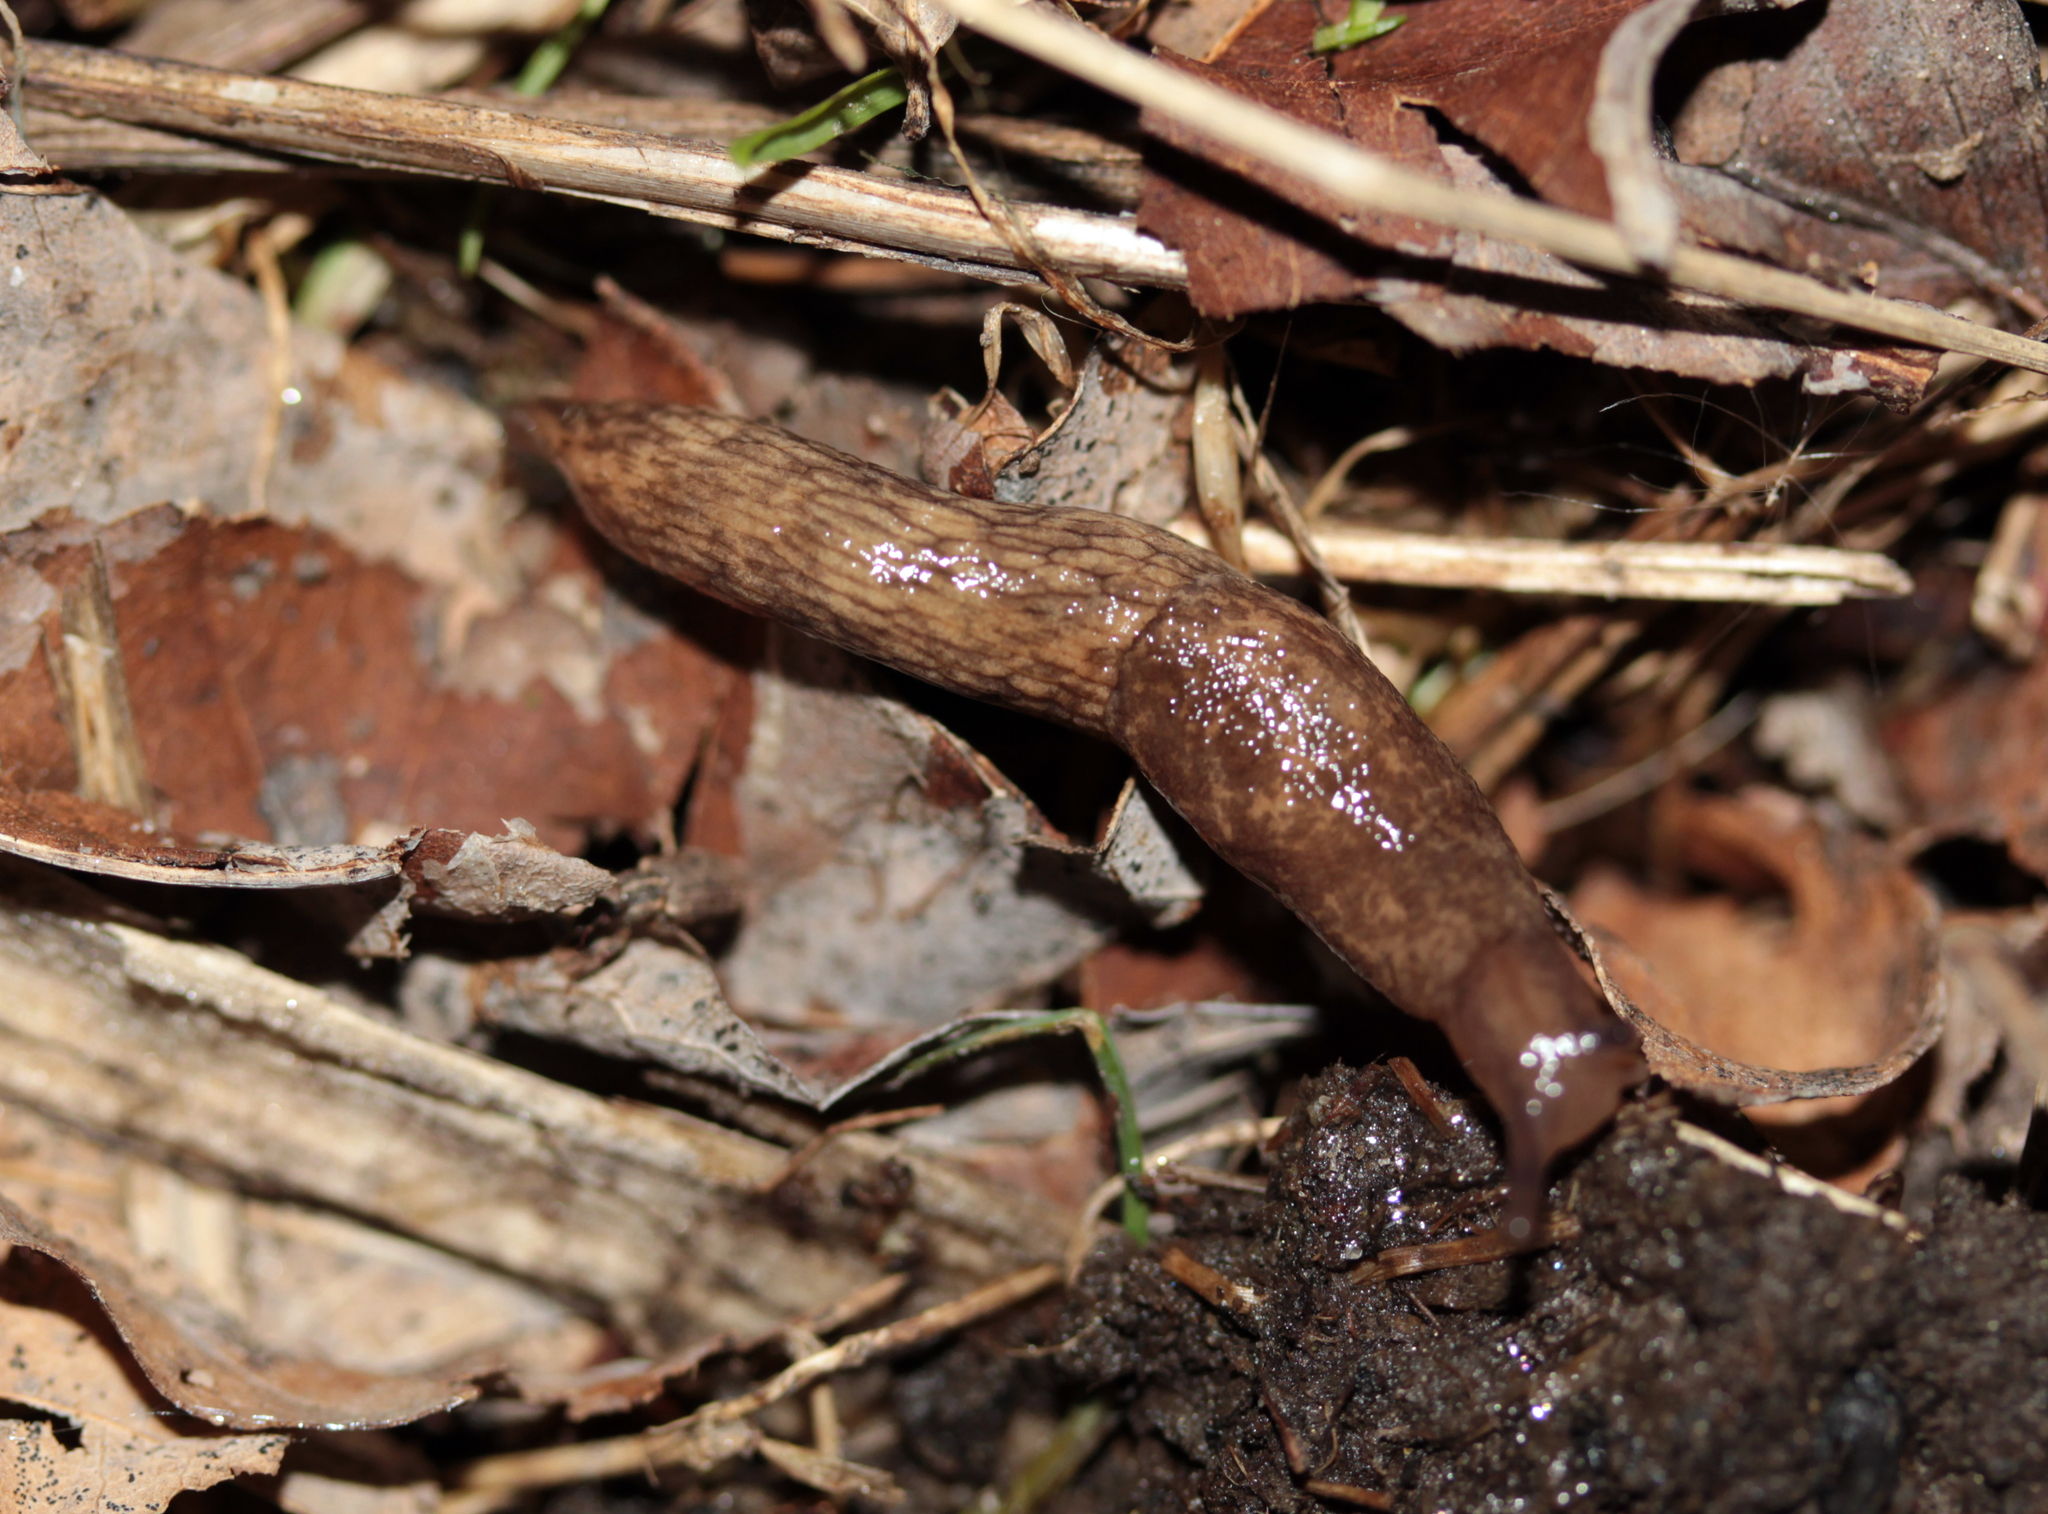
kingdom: Animalia
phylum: Mollusca
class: Gastropoda
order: Stylommatophora
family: Agriolimacidae
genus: Deroceras
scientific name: Deroceras reticulatum
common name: Gray field slug
